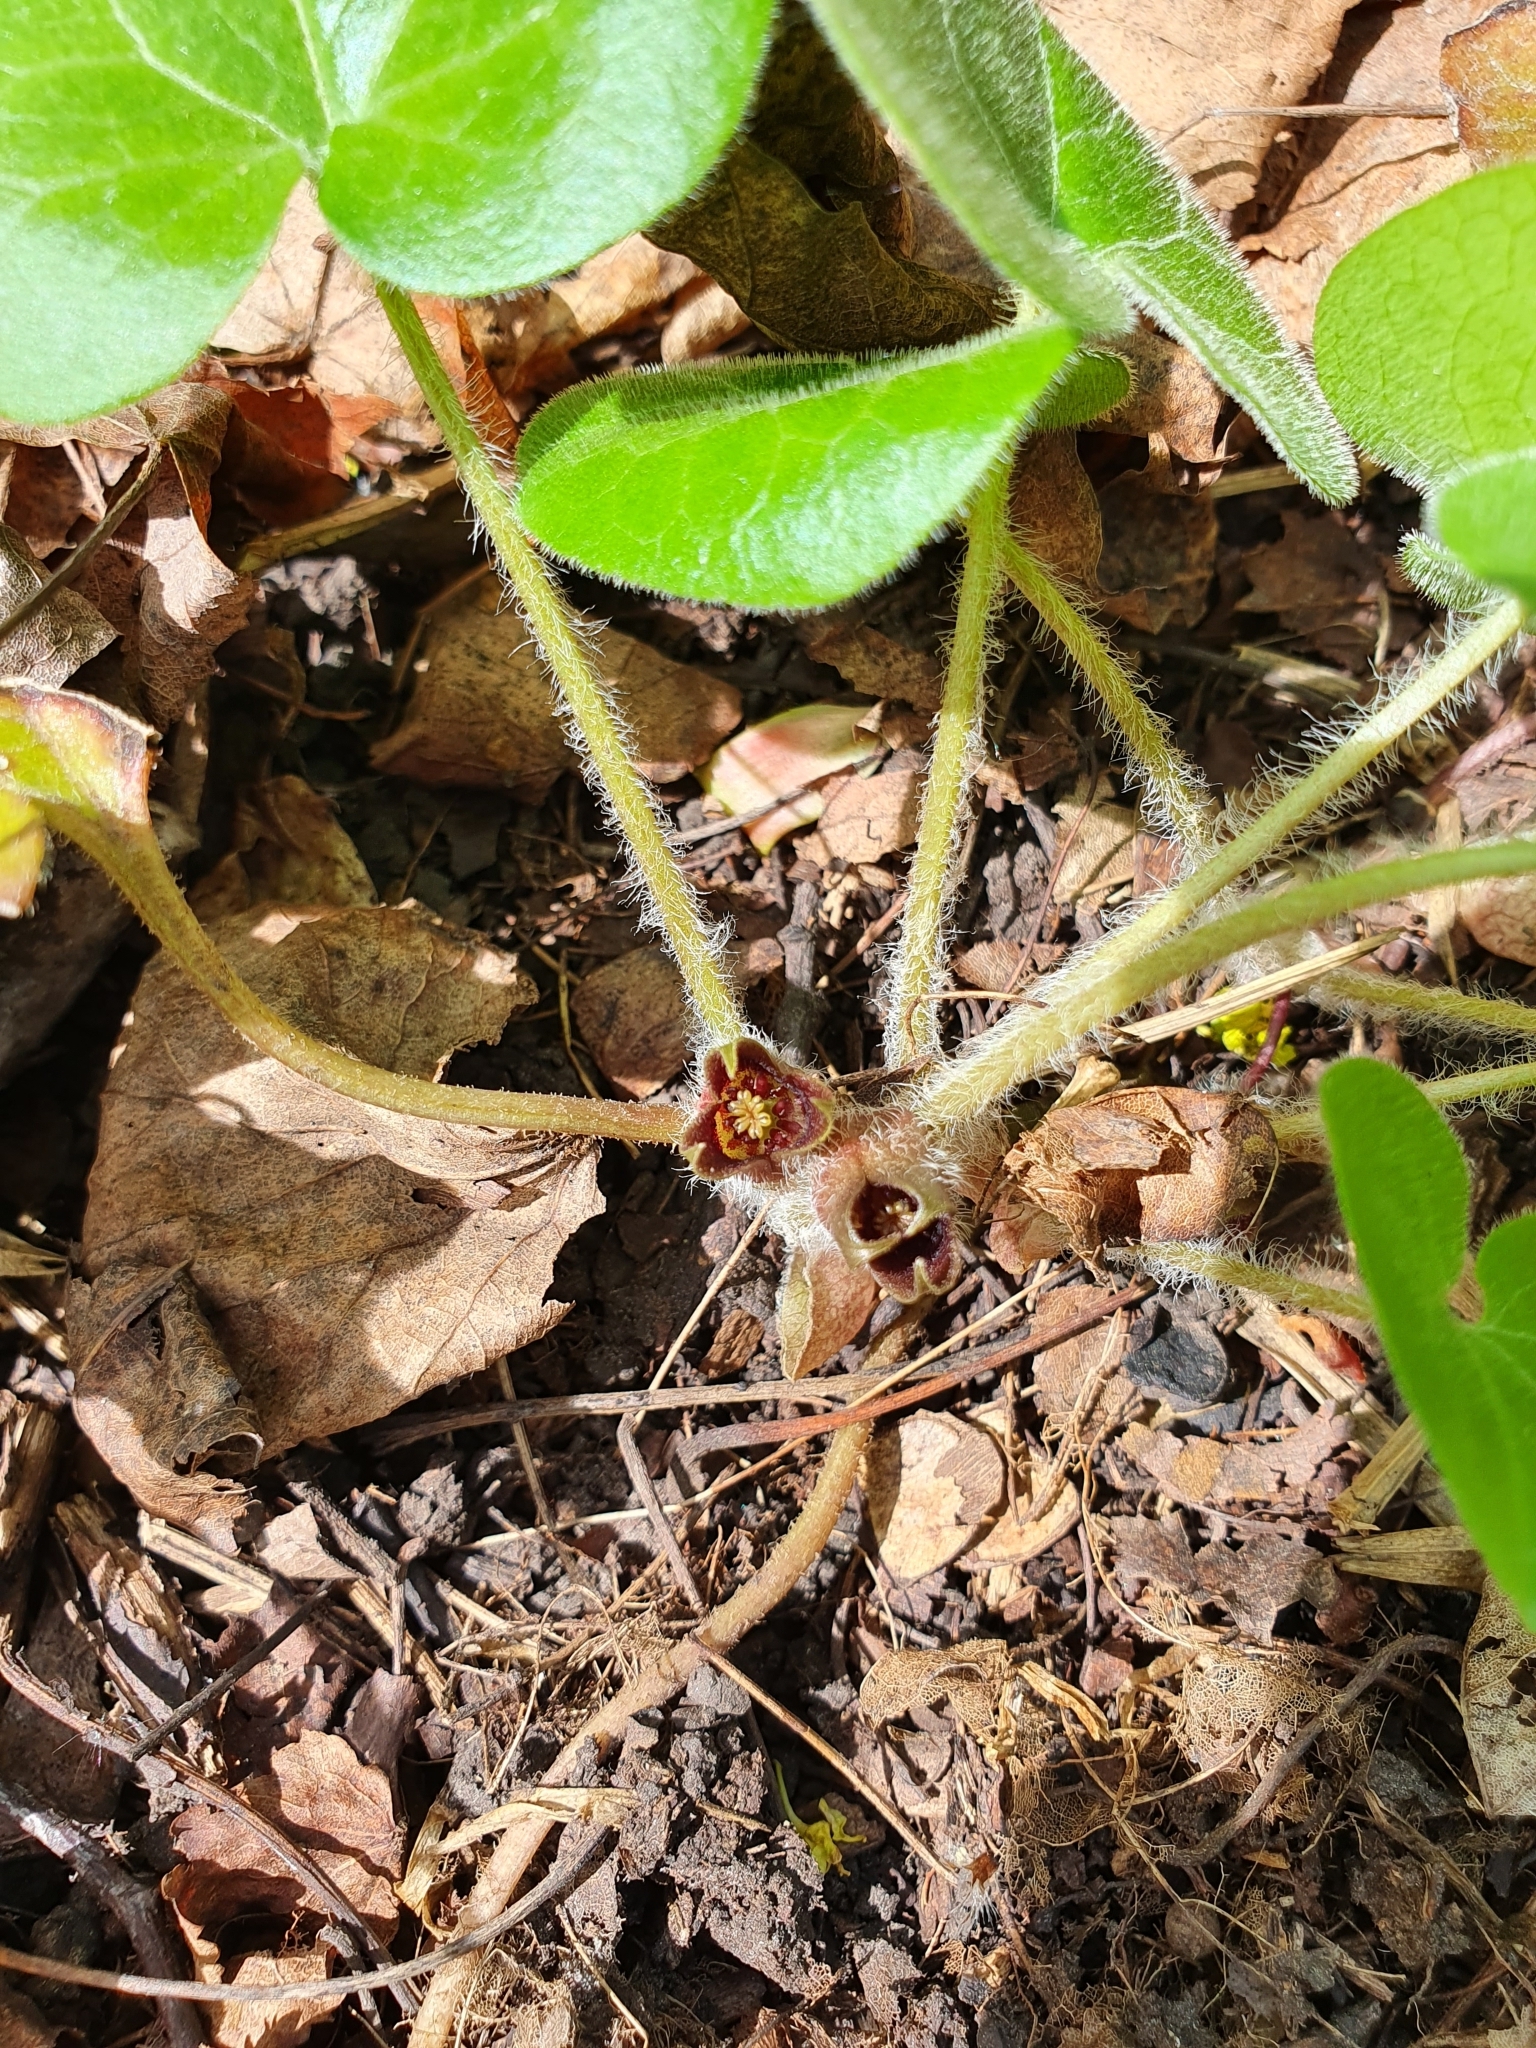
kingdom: Plantae
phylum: Tracheophyta
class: Magnoliopsida
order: Piperales
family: Aristolochiaceae
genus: Asarum
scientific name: Asarum europaeum
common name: Asarabacca
